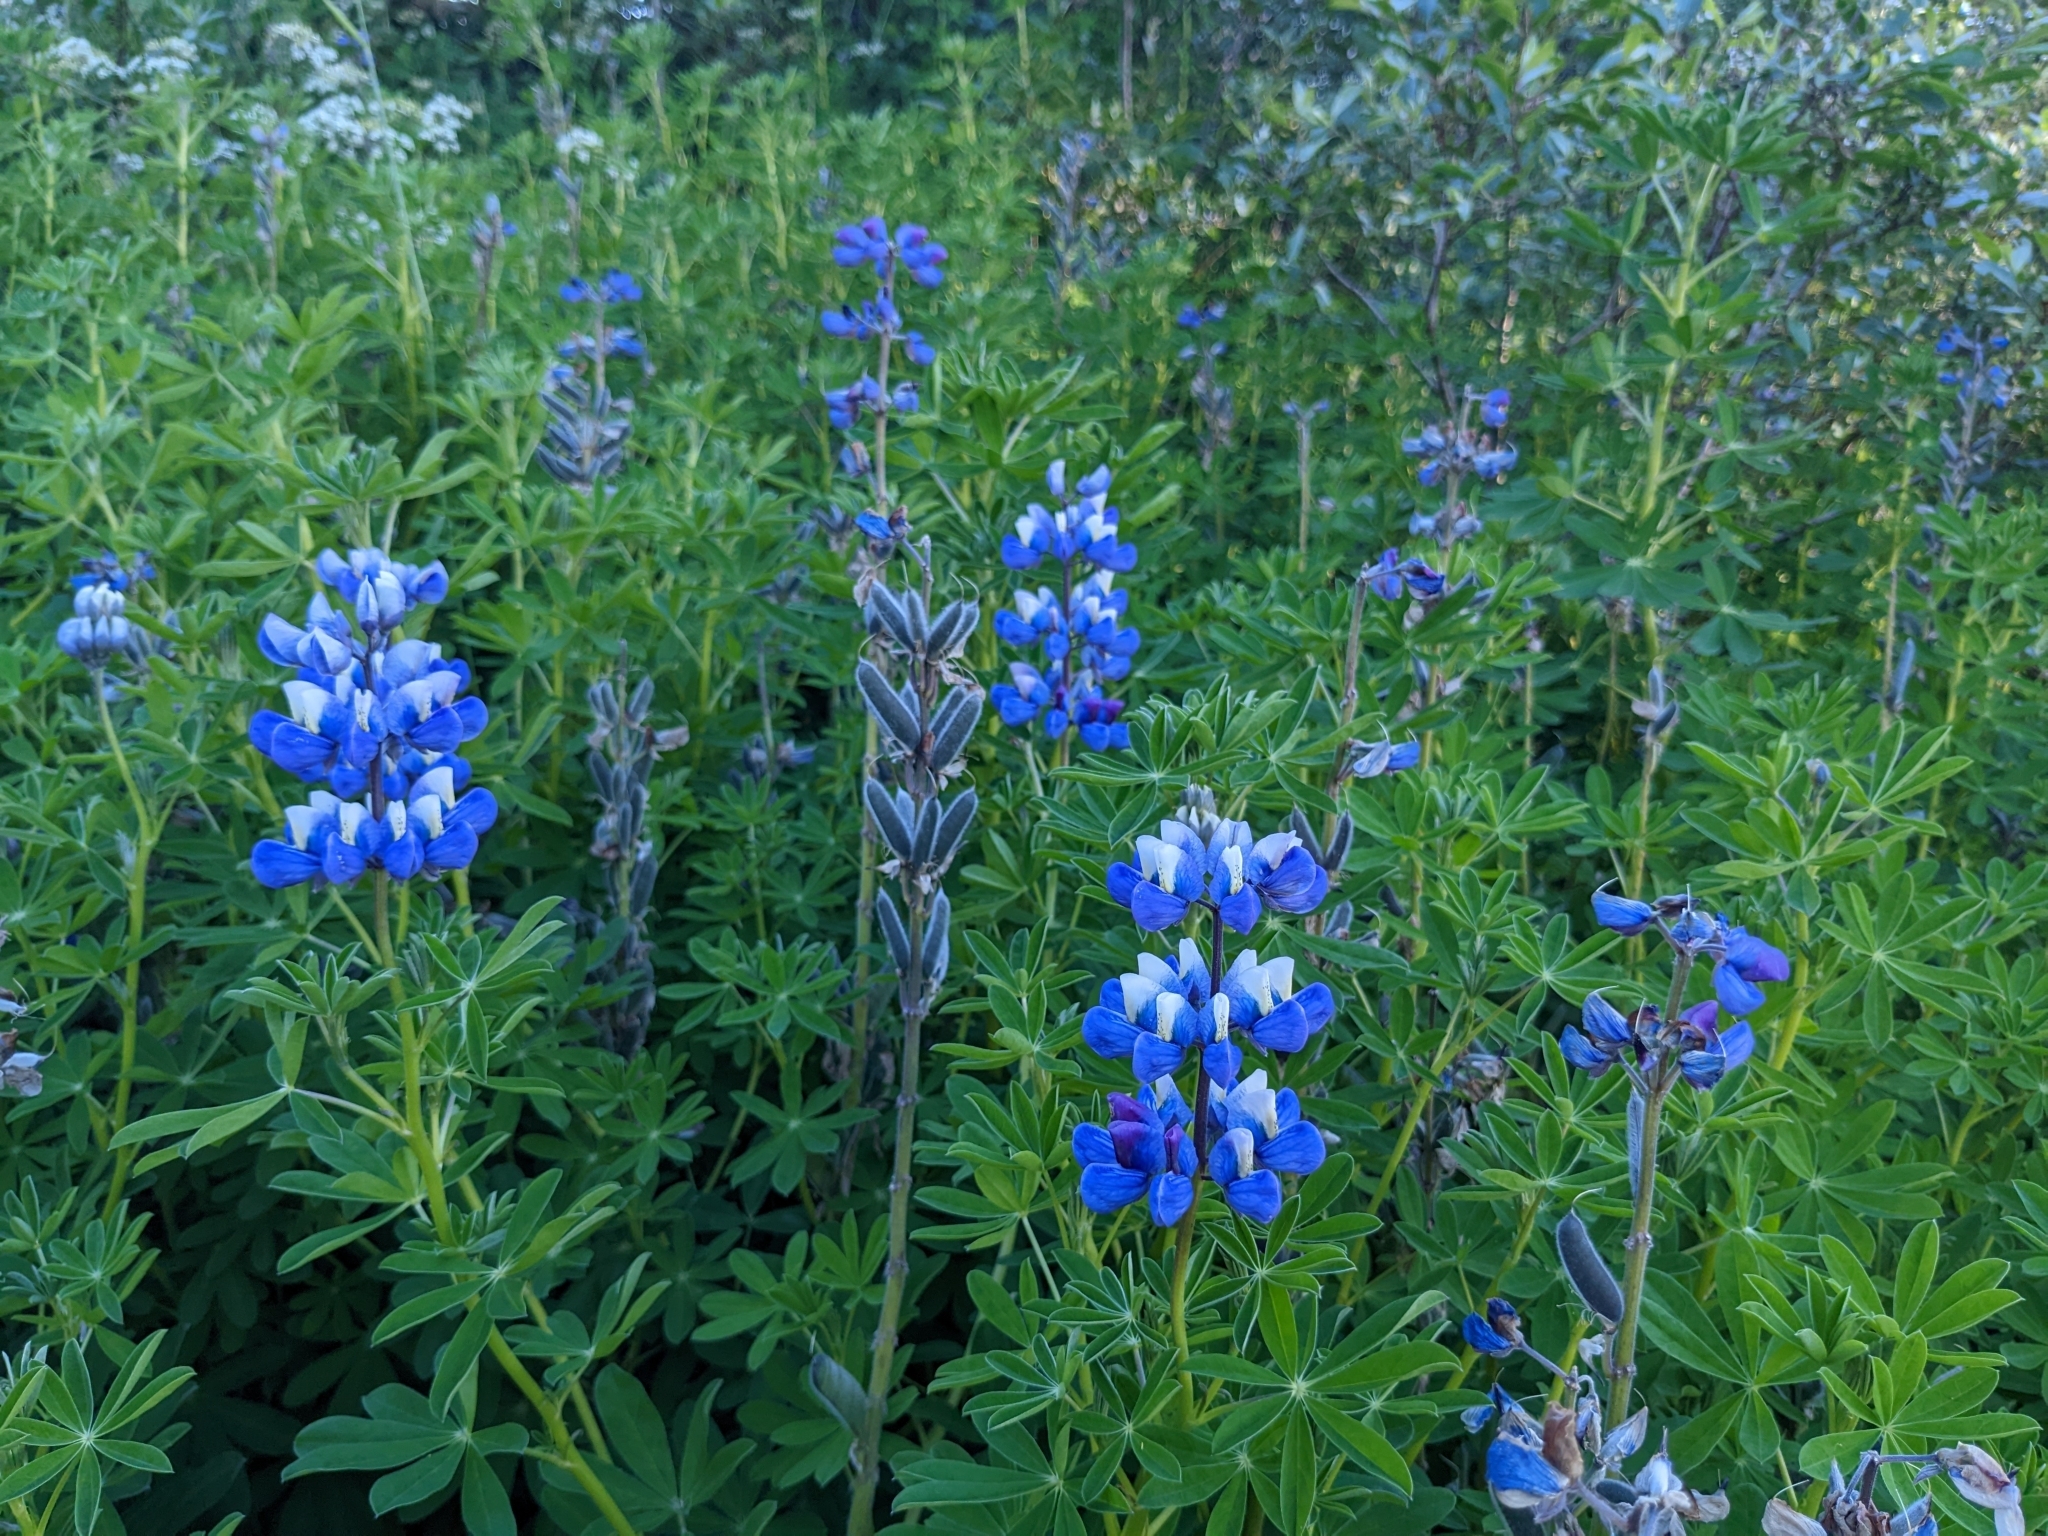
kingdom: Plantae
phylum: Tracheophyta
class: Magnoliopsida
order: Fabales
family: Fabaceae
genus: Lupinus
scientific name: Lupinus nootkatensis
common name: Nootka lupine
